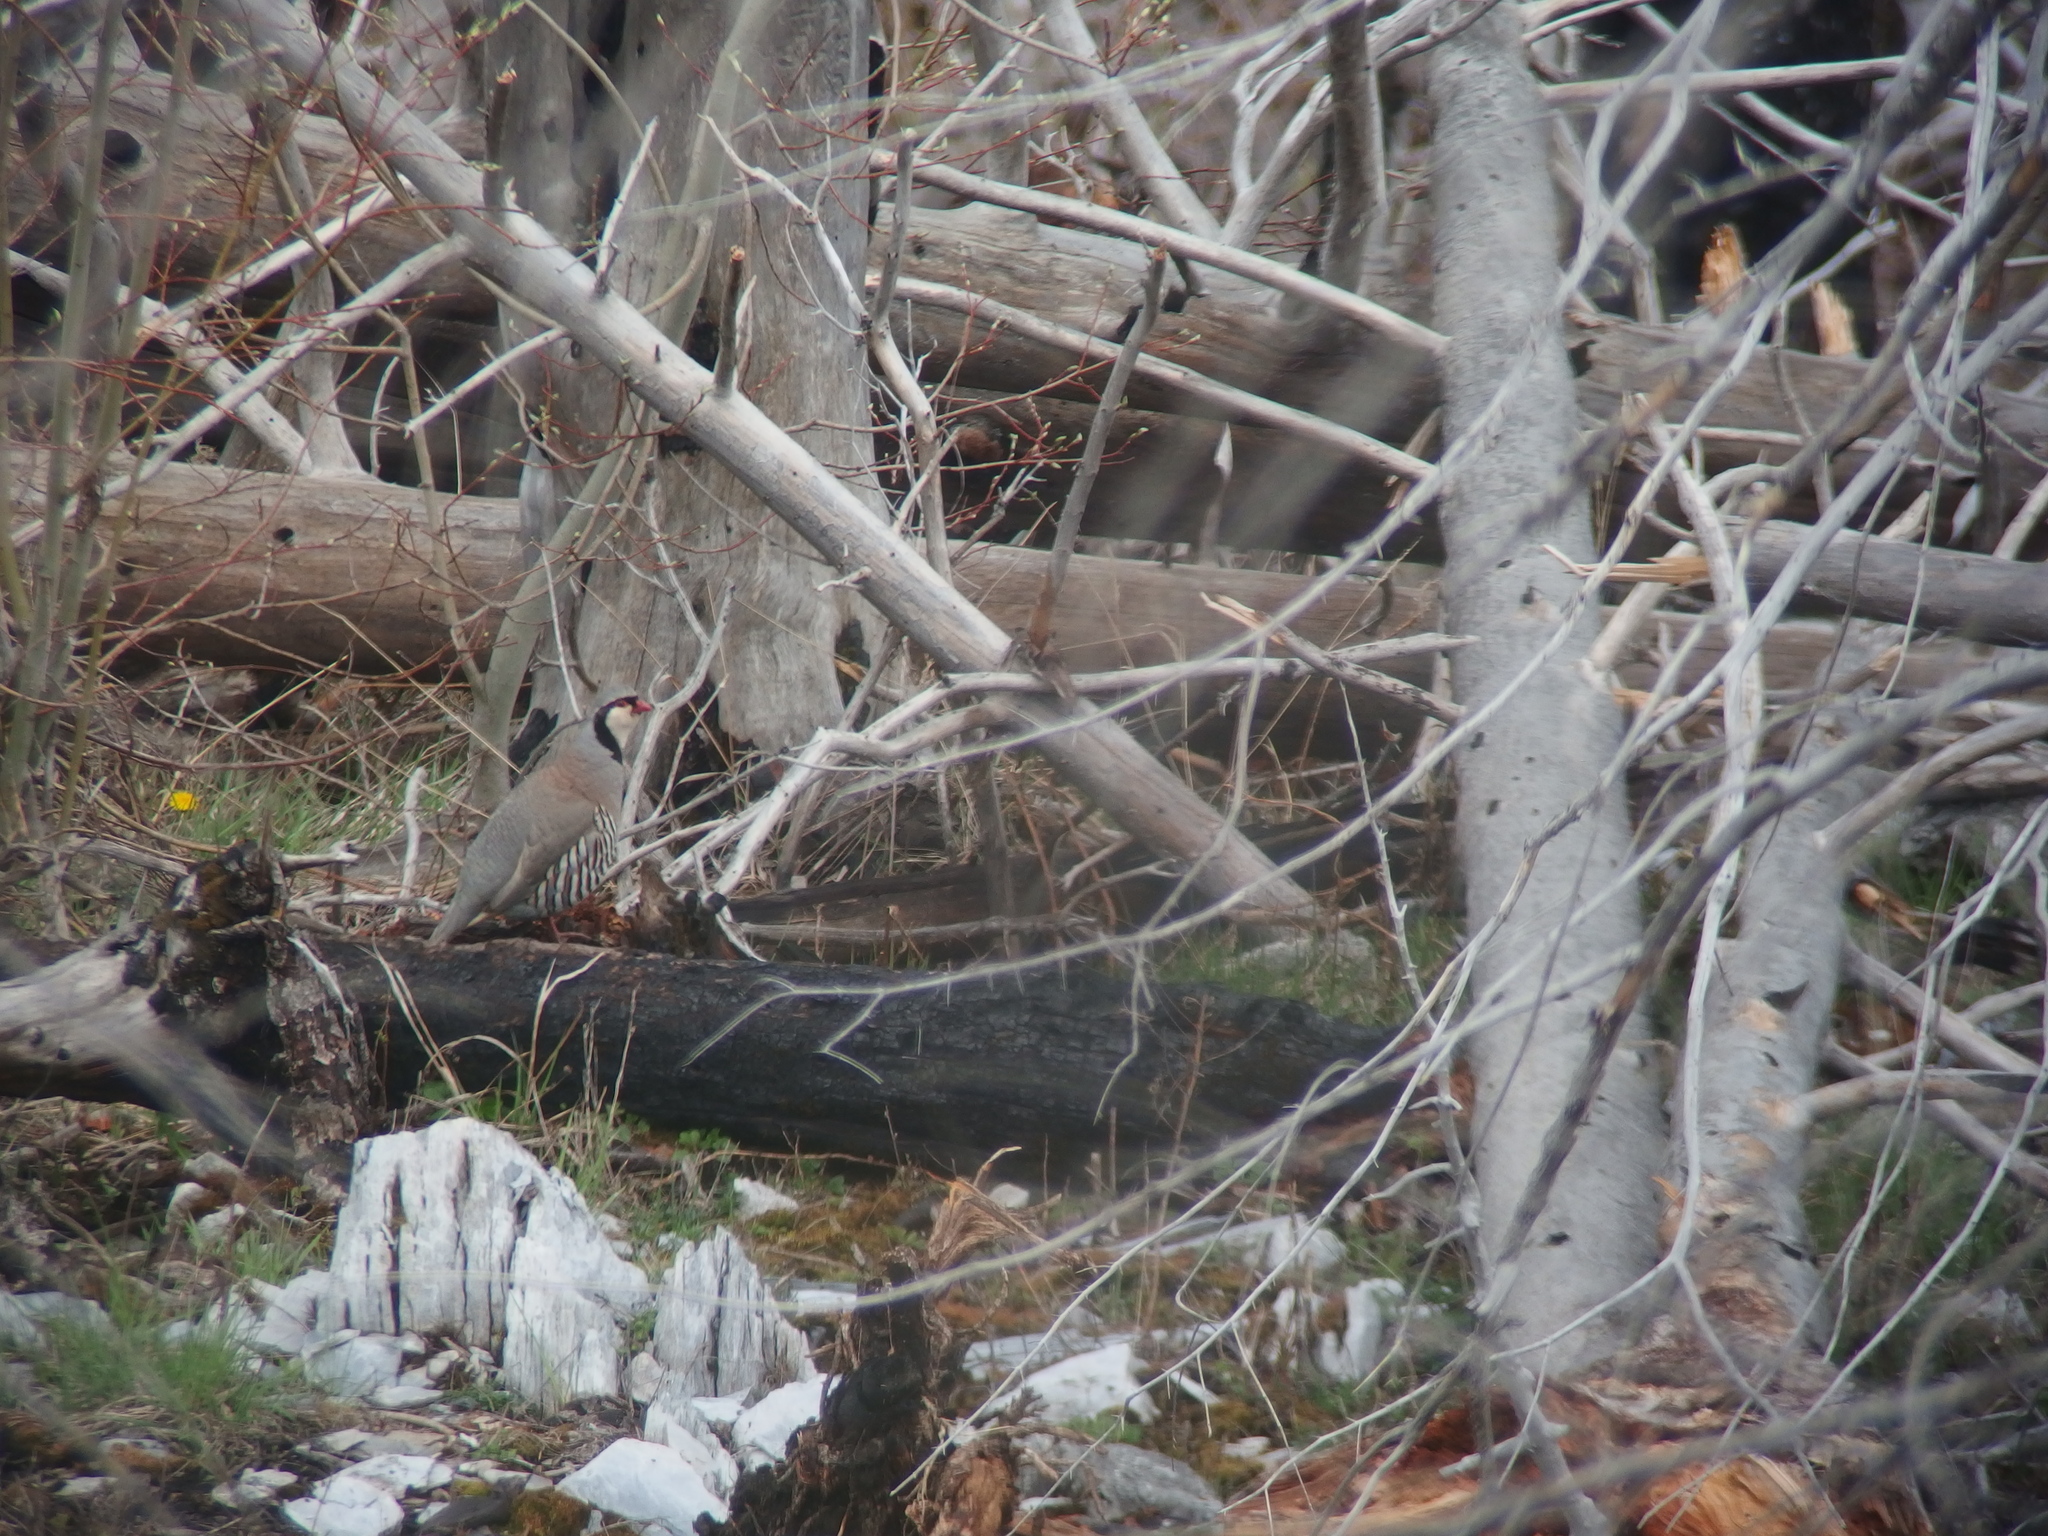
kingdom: Animalia
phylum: Chordata
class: Aves
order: Galliformes
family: Phasianidae
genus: Alectoris
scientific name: Alectoris graeca
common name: Rock partridge
